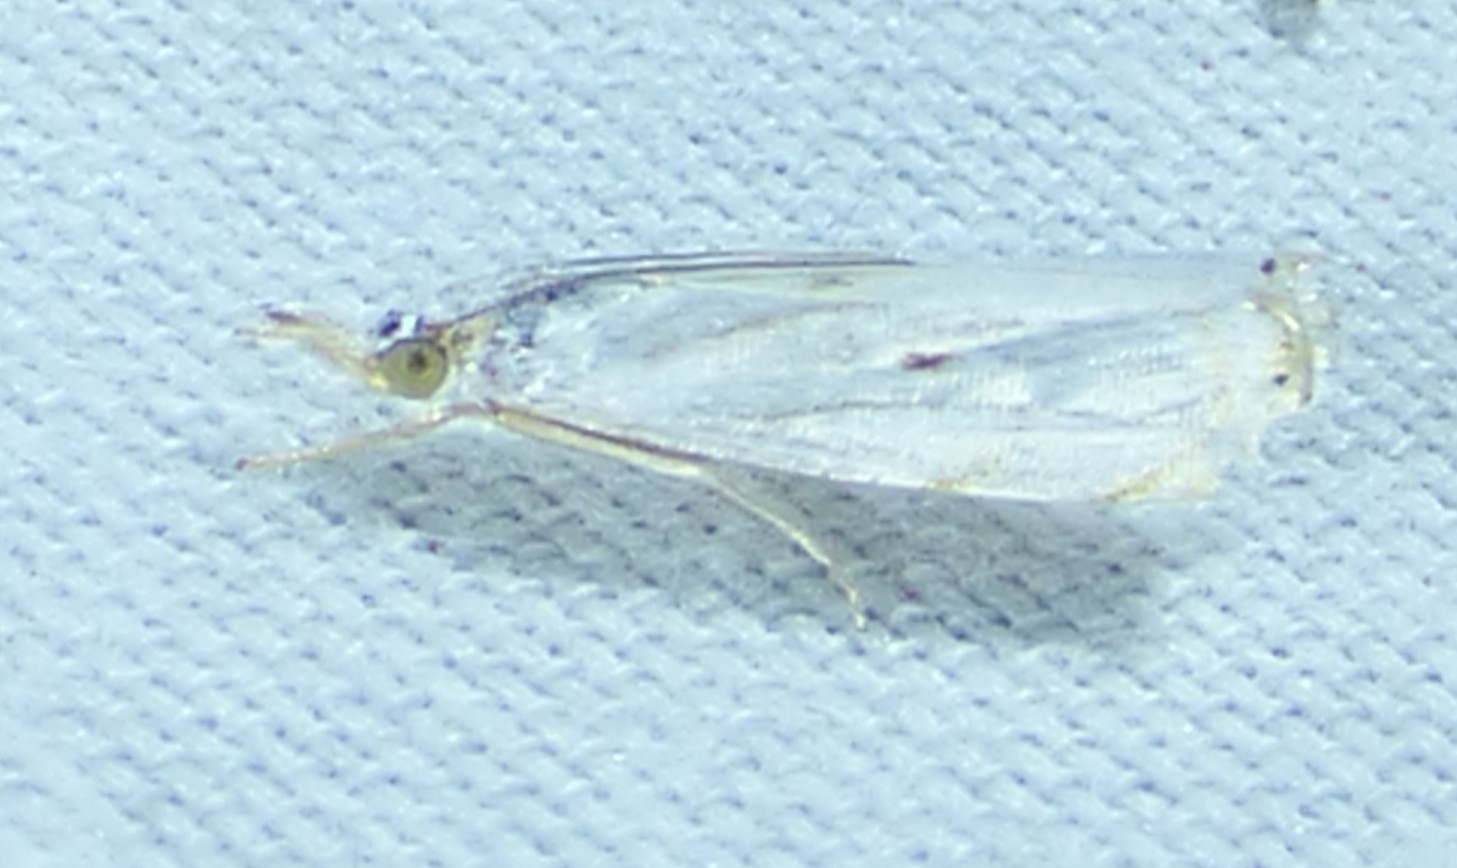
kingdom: Animalia
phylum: Arthropoda
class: Insecta
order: Lepidoptera
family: Crambidae
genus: Microcrambus
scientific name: Microcrambus biguttellus
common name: Gold-stripe grass-veneer moth
